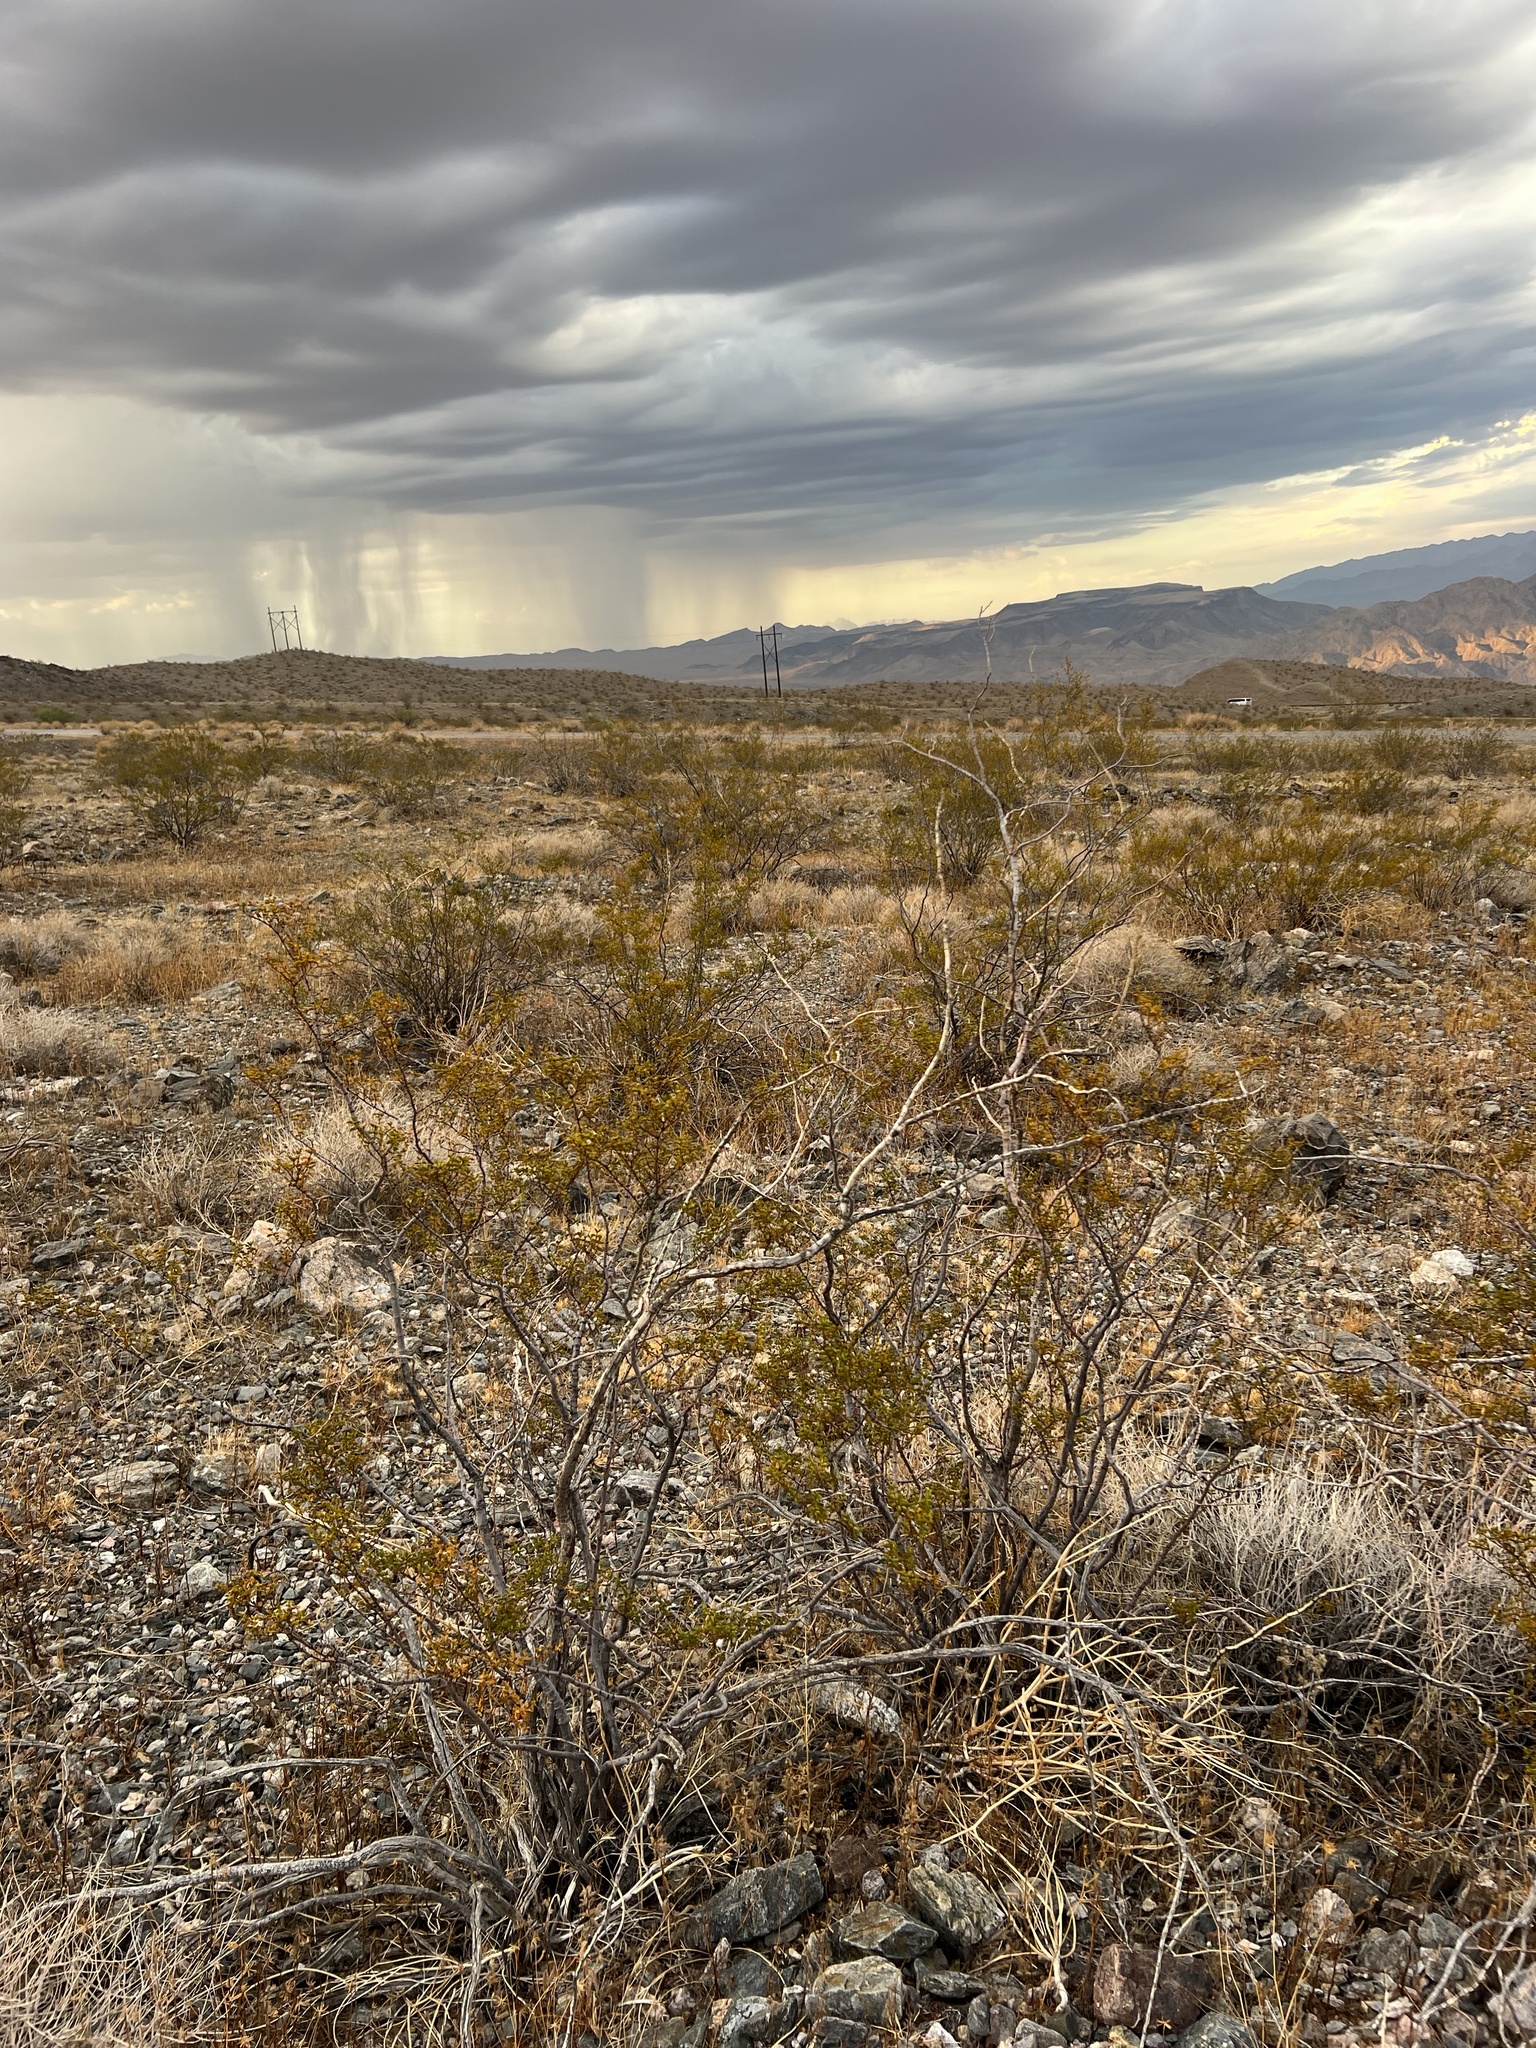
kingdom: Plantae
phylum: Tracheophyta
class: Magnoliopsida
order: Zygophyllales
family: Zygophyllaceae
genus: Larrea
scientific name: Larrea tridentata
